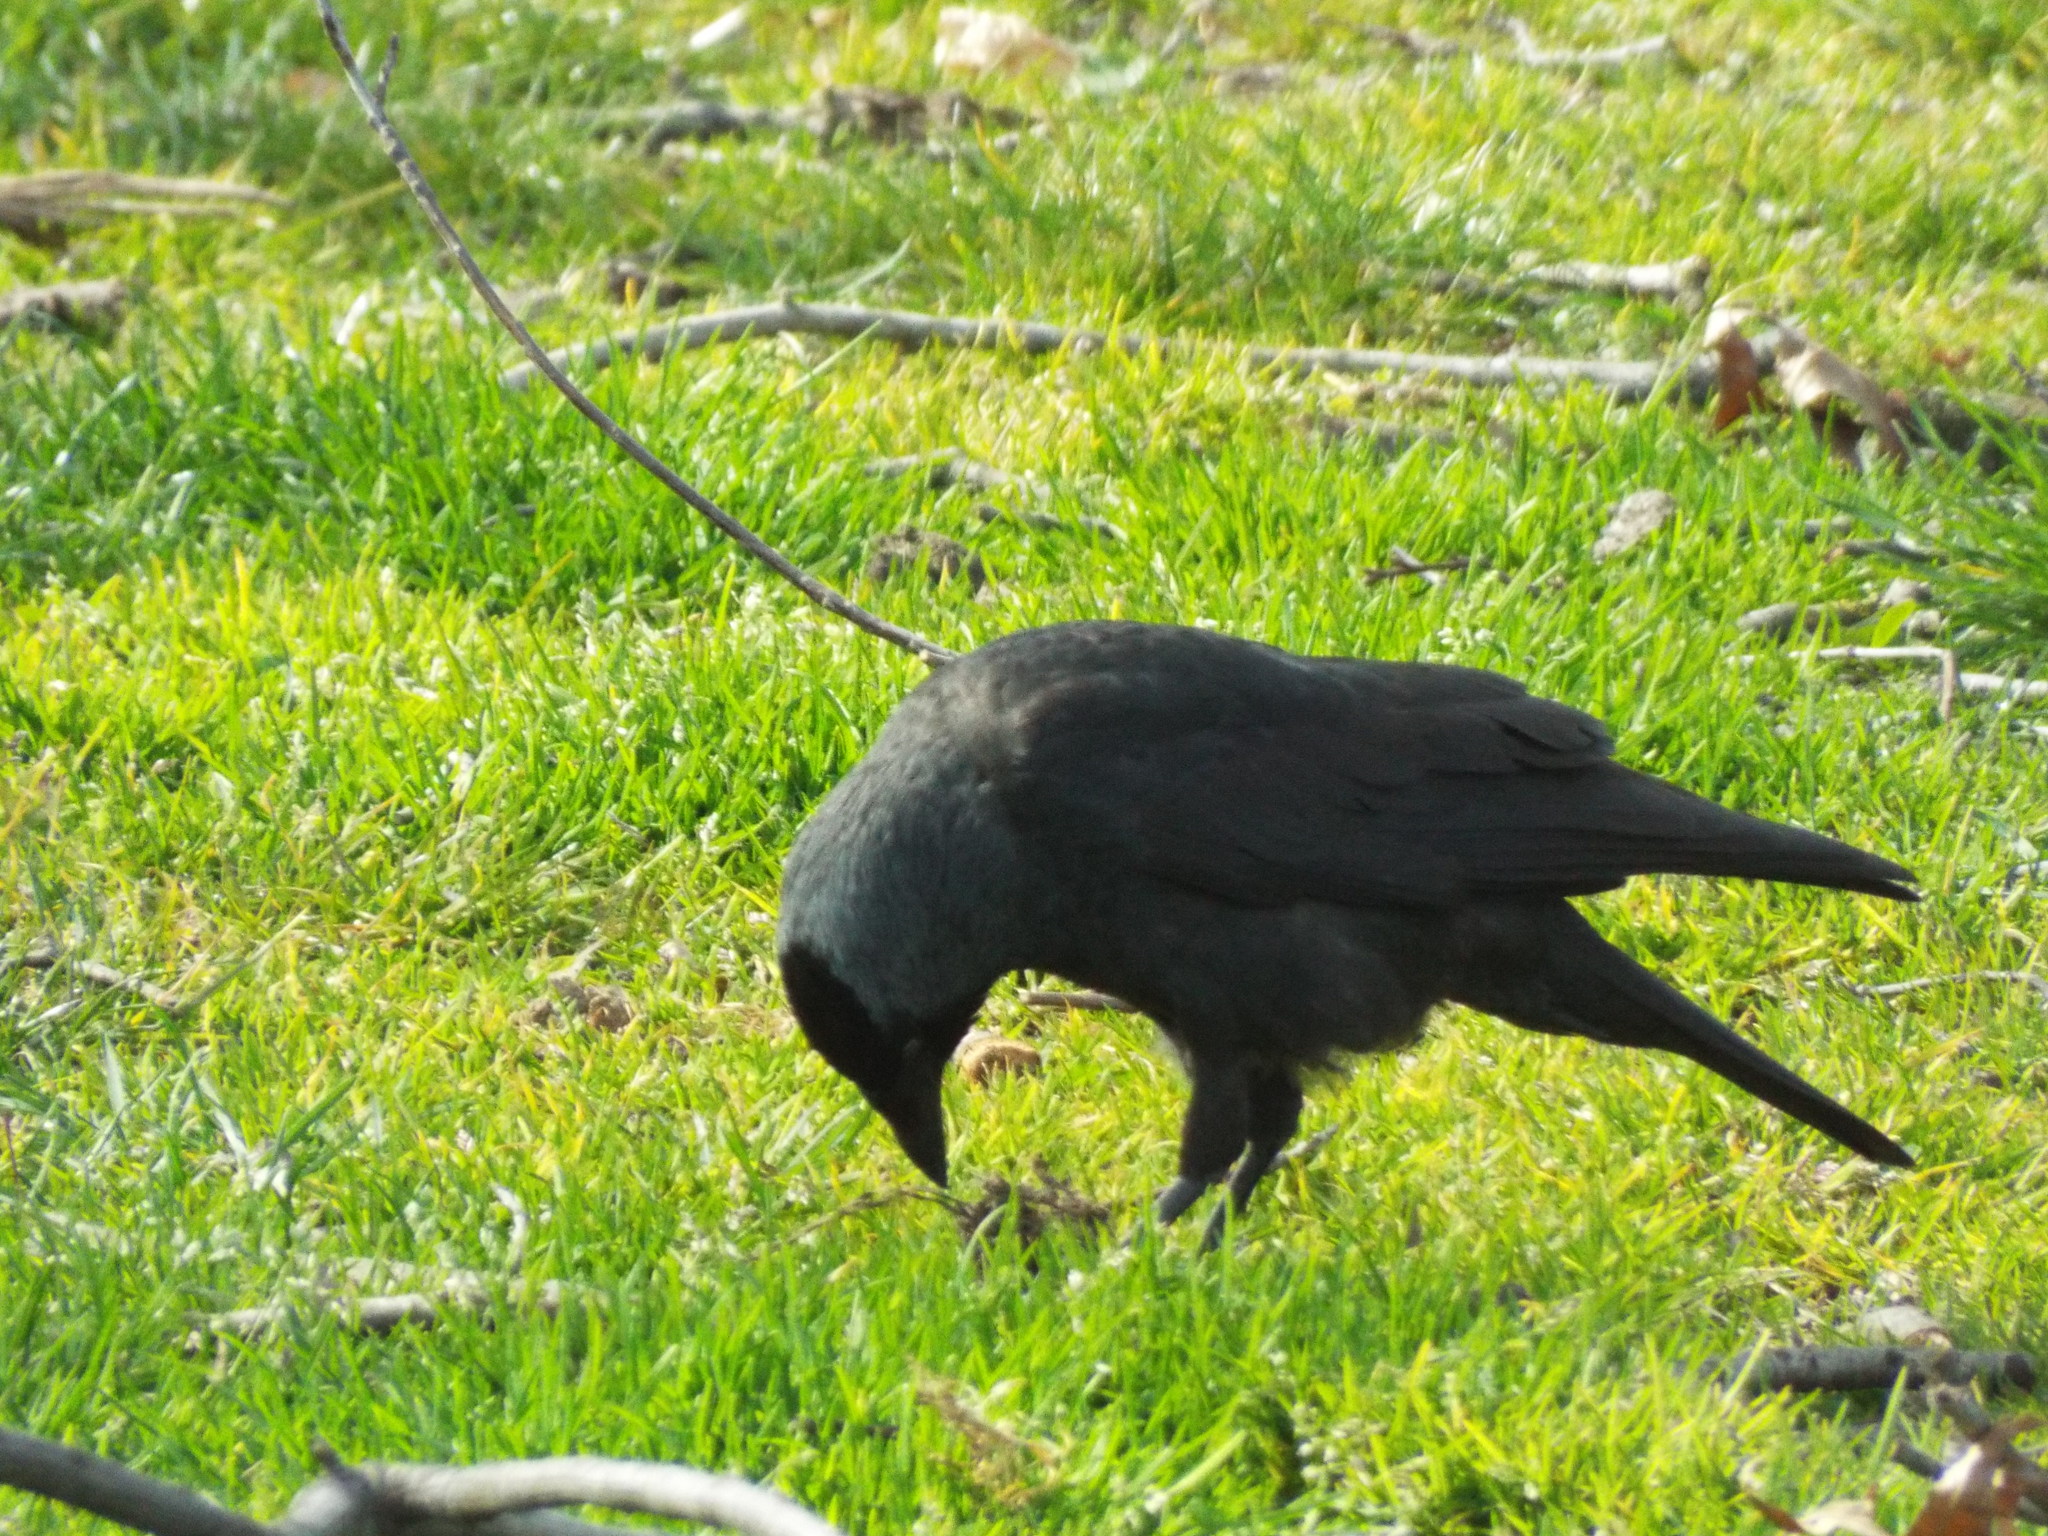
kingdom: Animalia
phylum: Chordata
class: Aves
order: Passeriformes
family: Corvidae
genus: Coloeus
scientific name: Coloeus monedula
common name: Western jackdaw
